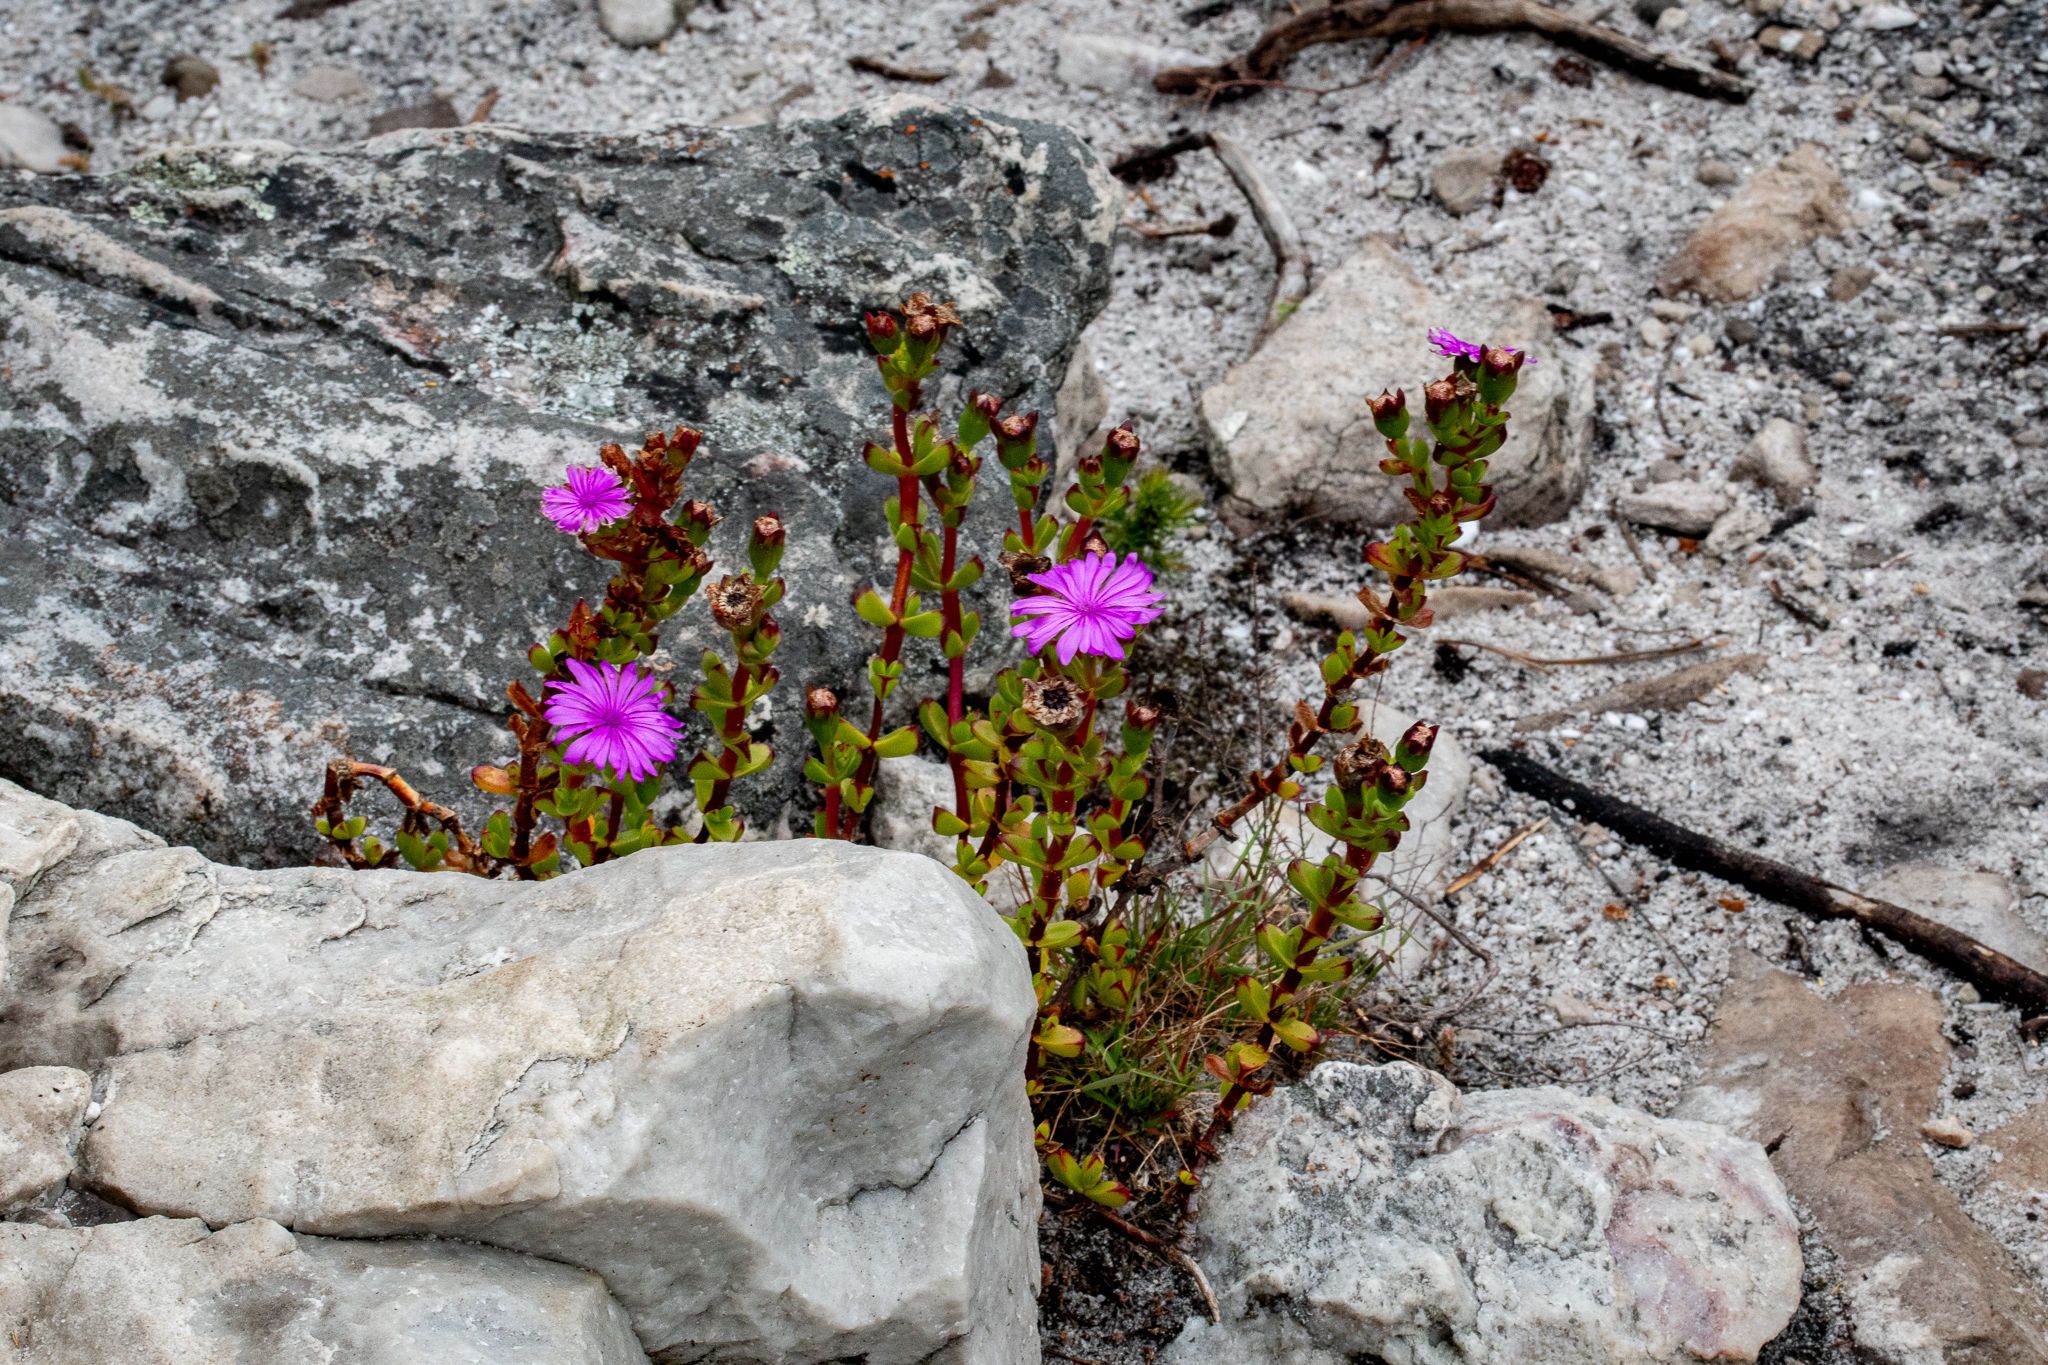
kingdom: Plantae
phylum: Tracheophyta
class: Magnoliopsida
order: Caryophyllales
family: Aizoaceae
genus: Erepsia
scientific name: Erepsia inclaudens
